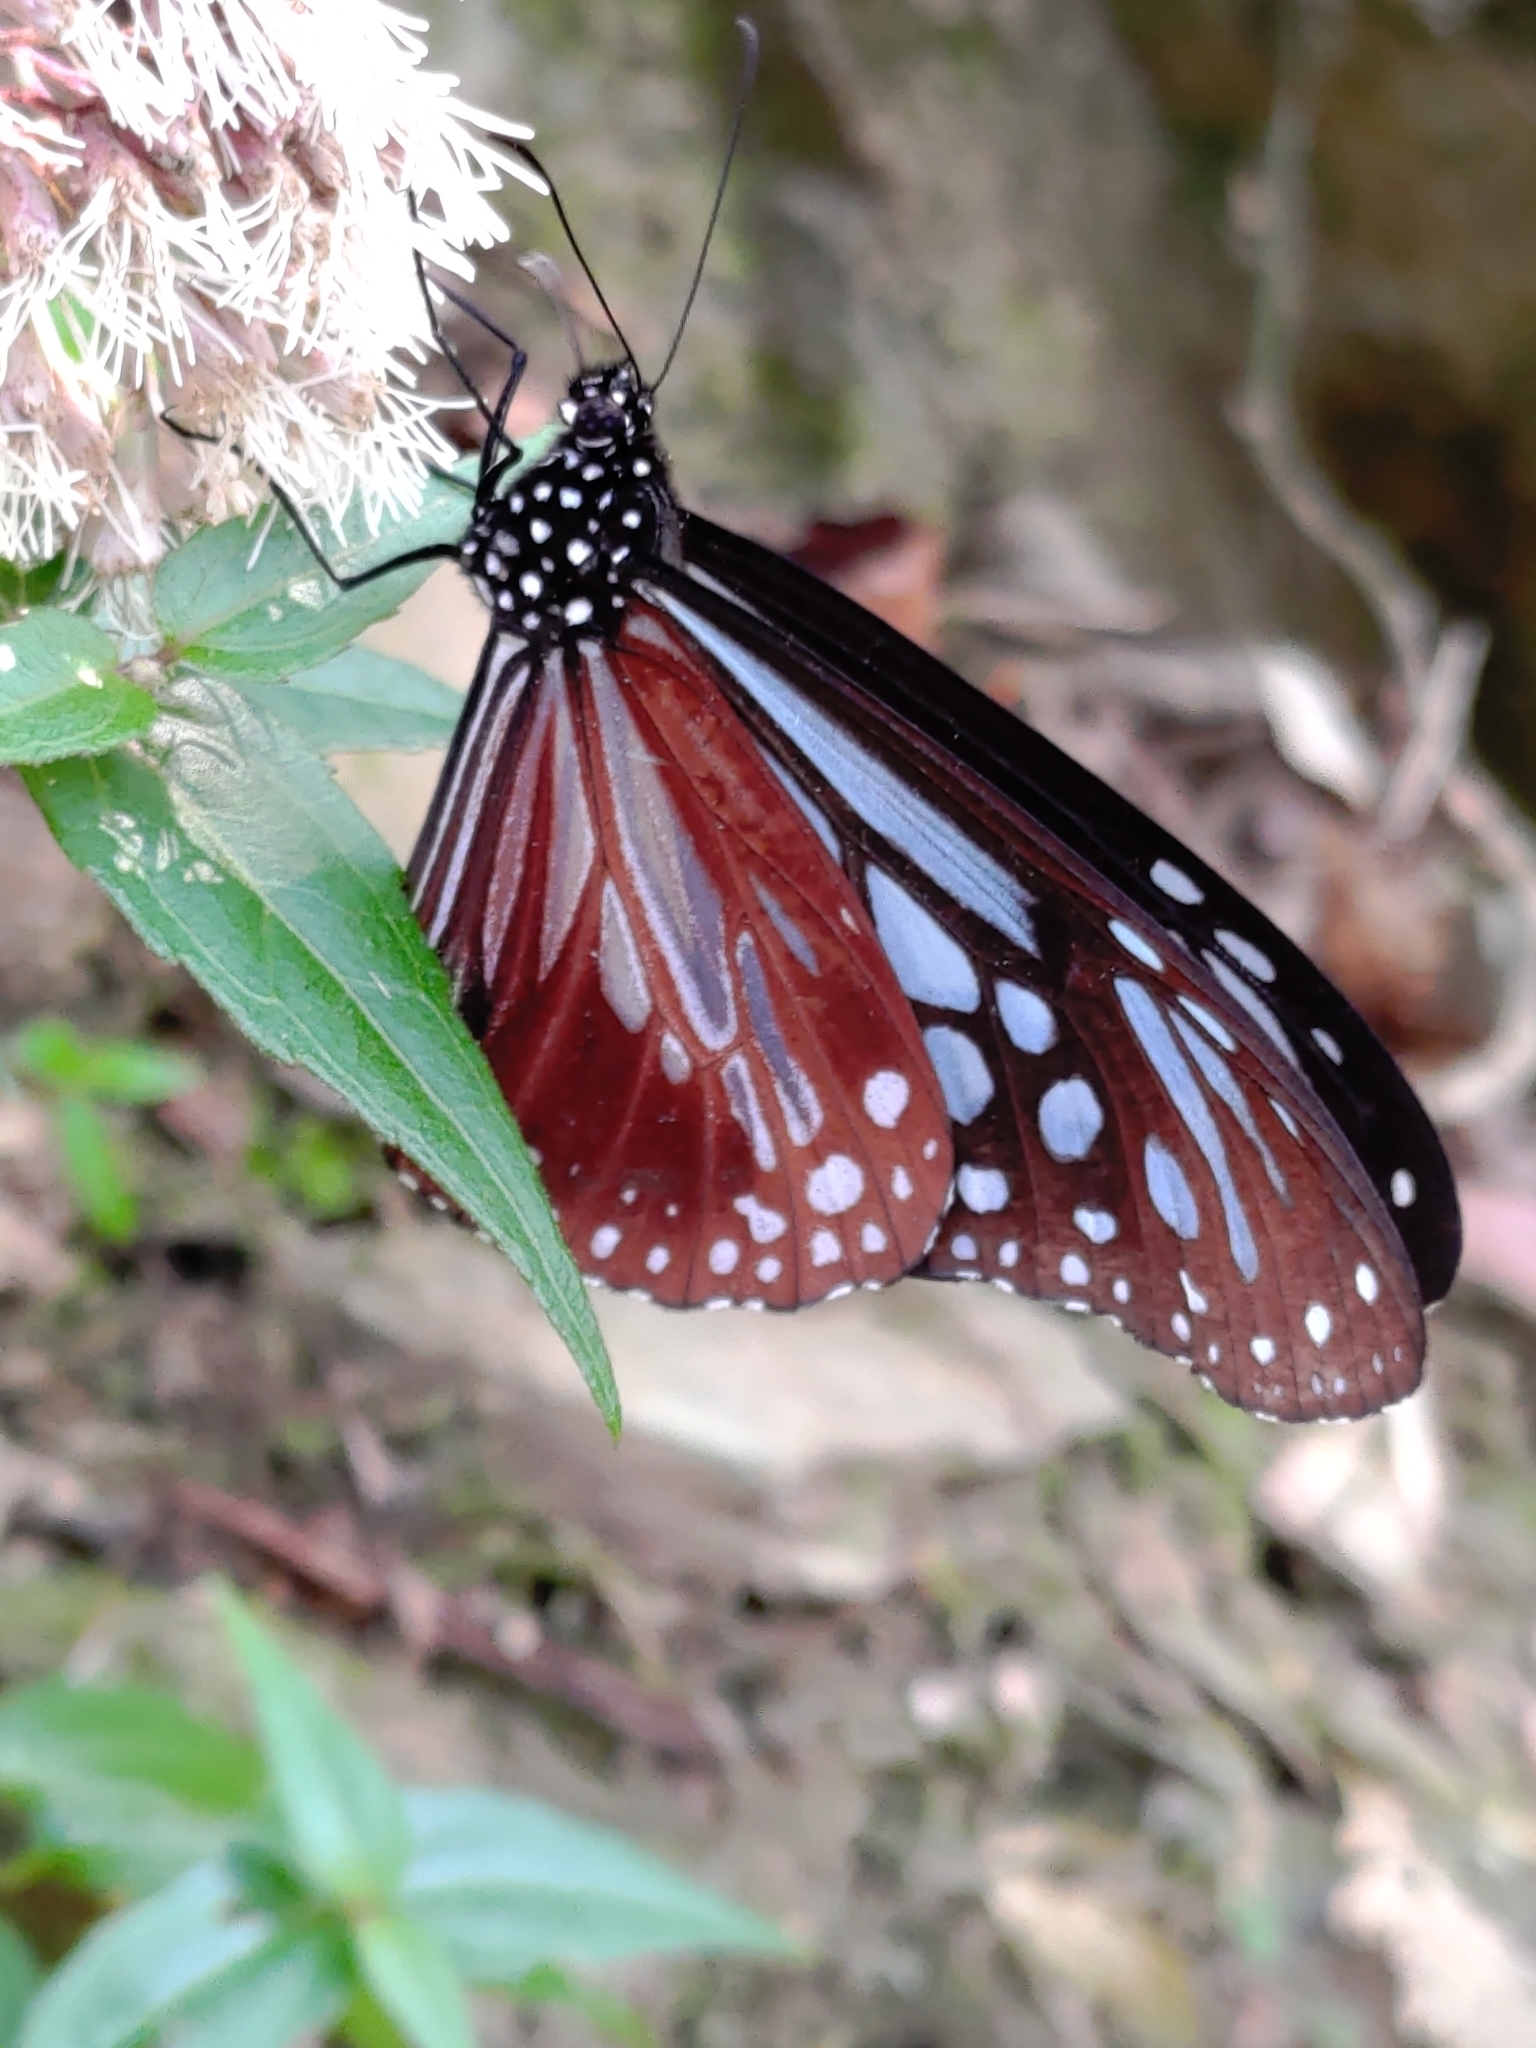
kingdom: Animalia
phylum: Arthropoda
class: Insecta
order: Lepidoptera
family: Nymphalidae
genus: Parantica
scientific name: Parantica melaneus
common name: Chocolate tiger
